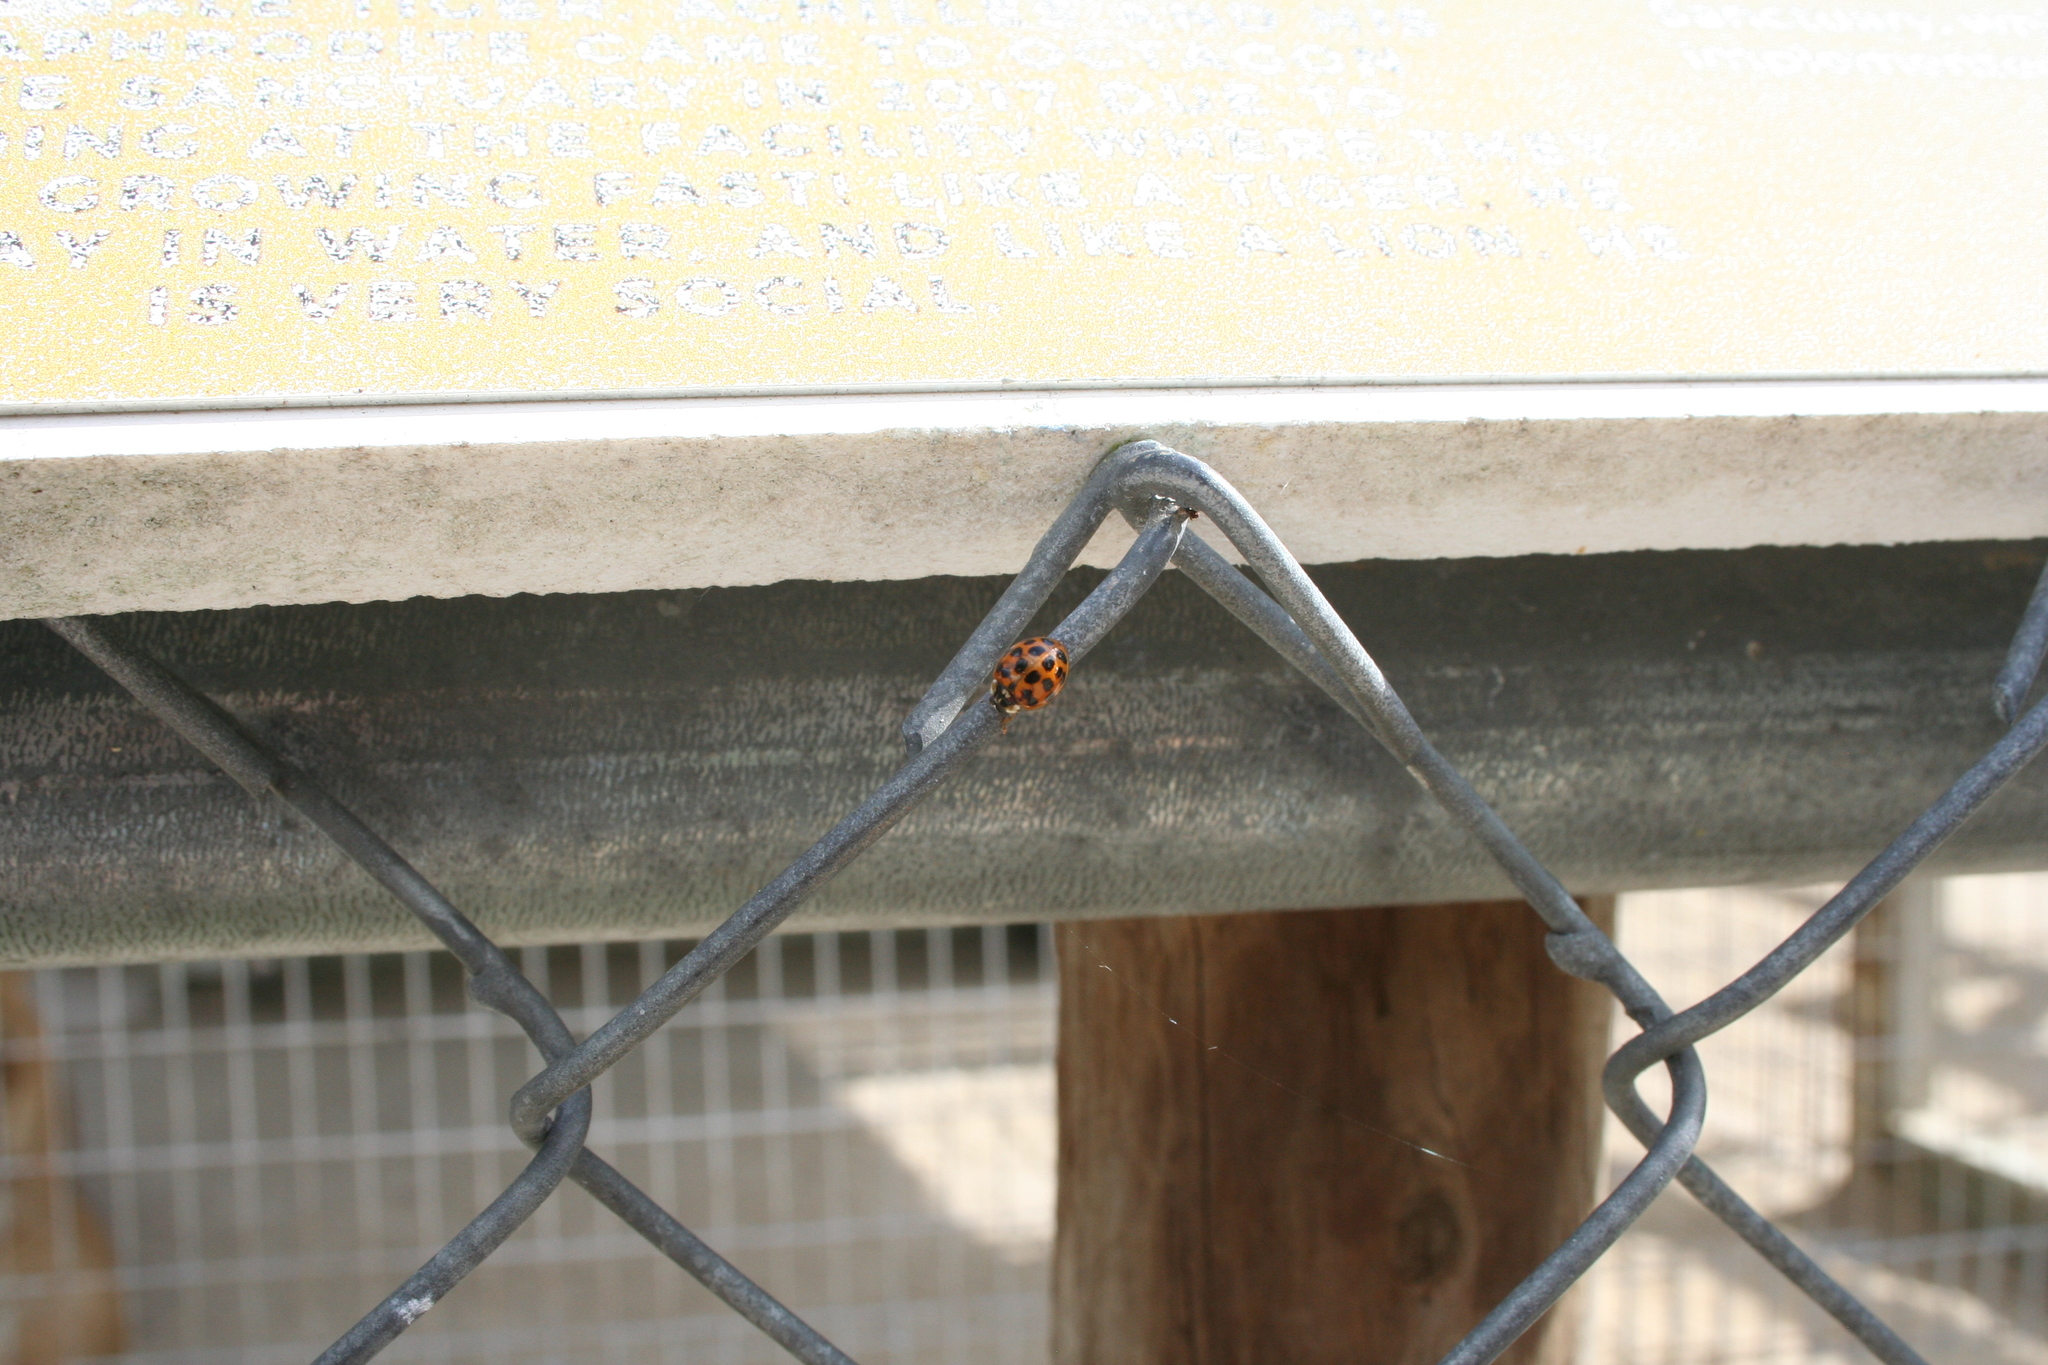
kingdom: Animalia
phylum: Arthropoda
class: Insecta
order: Coleoptera
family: Coccinellidae
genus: Harmonia
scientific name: Harmonia axyridis
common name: Harlequin ladybird
